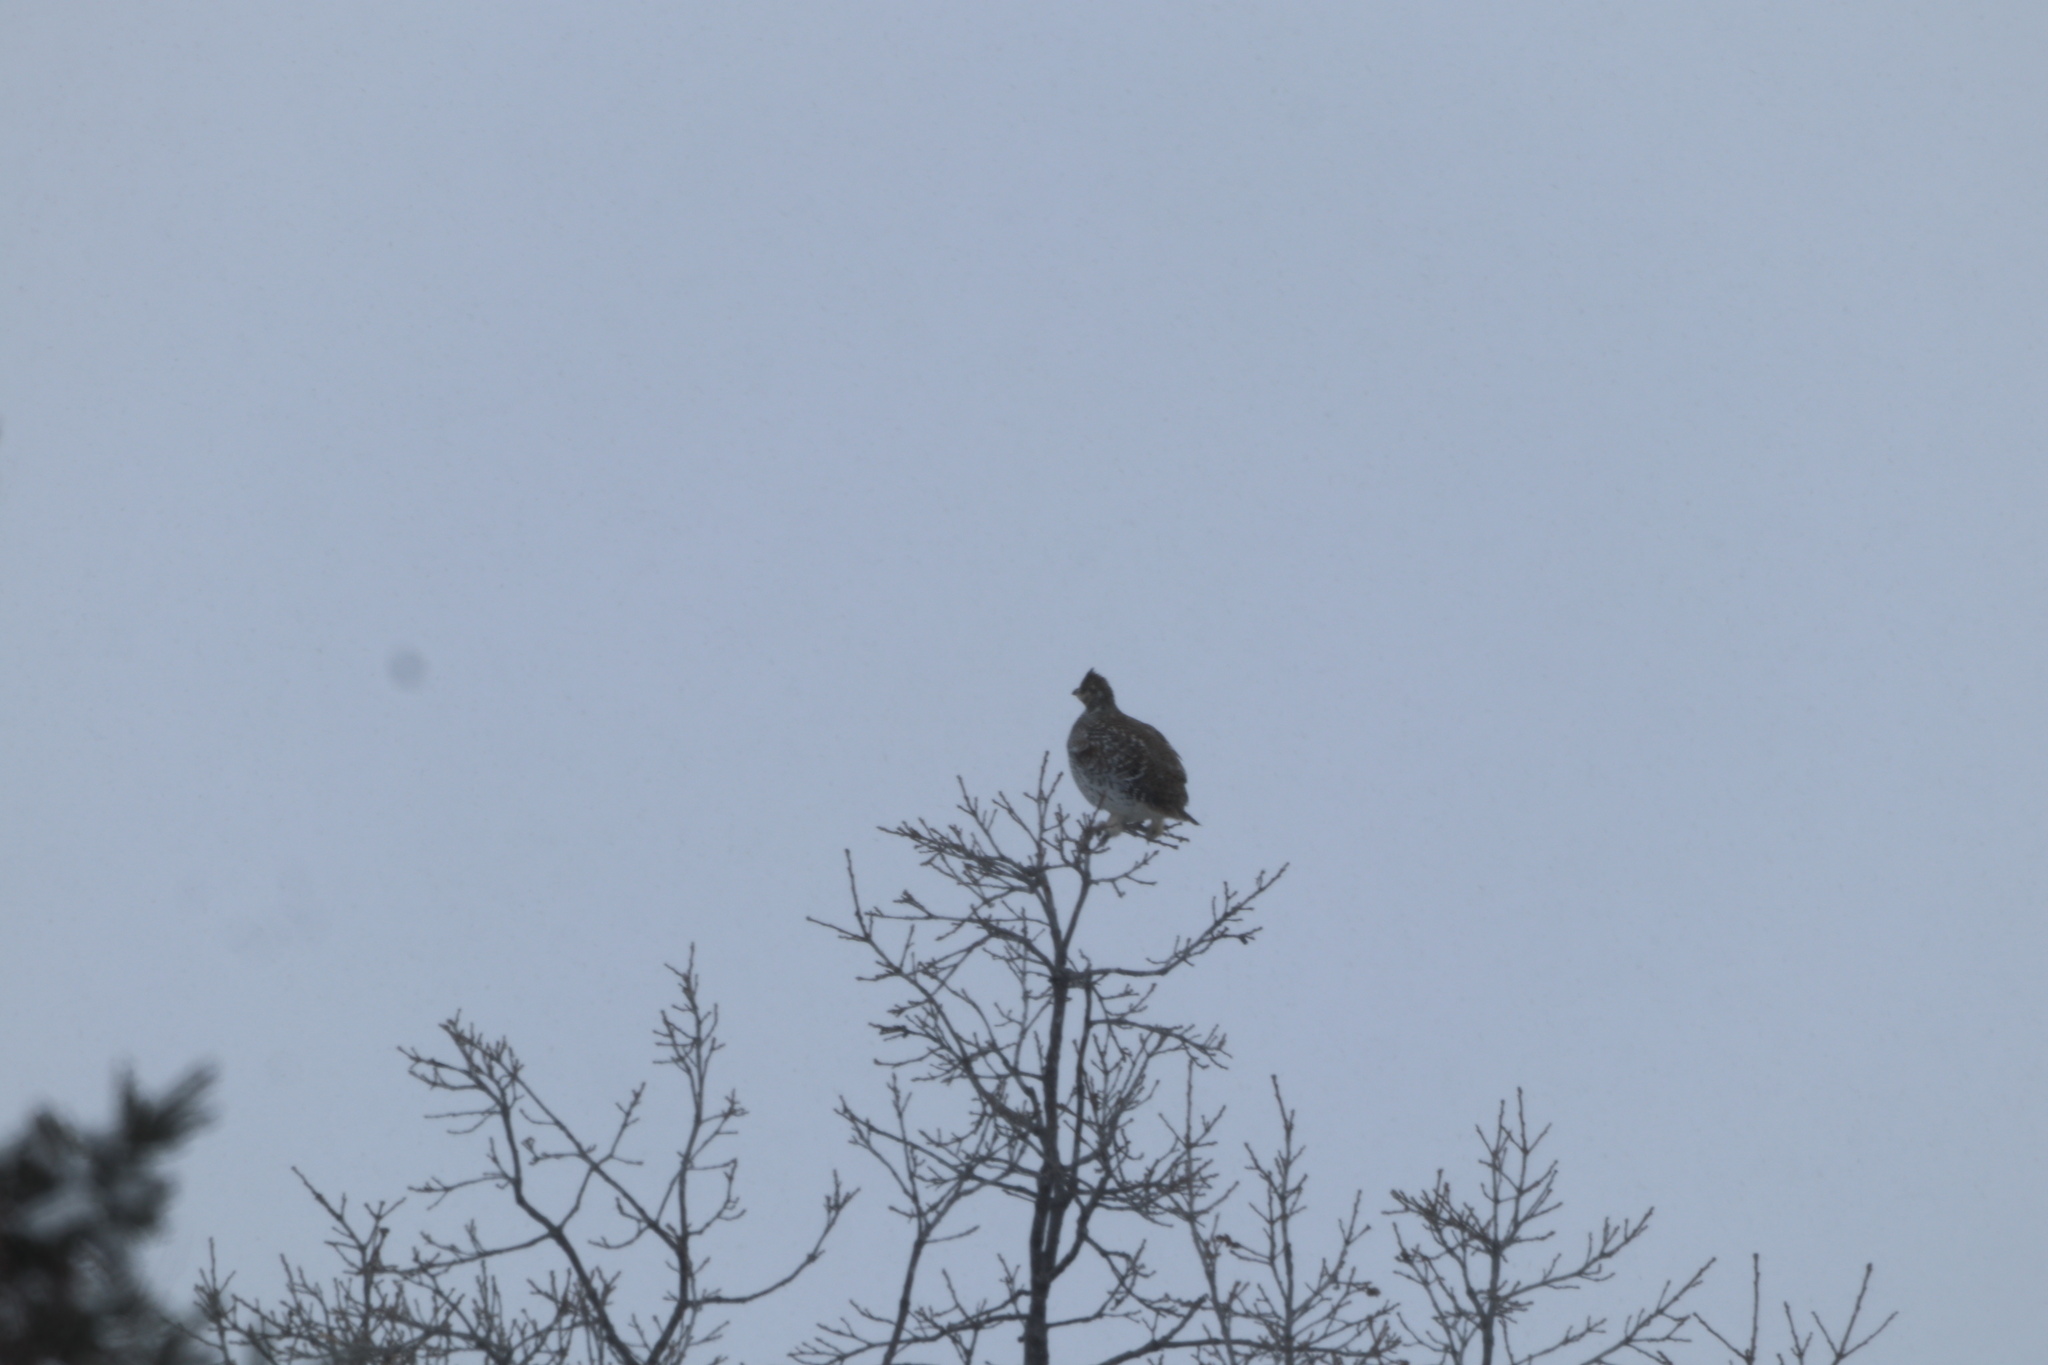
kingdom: Animalia
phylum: Chordata
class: Aves
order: Galliformes
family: Phasianidae
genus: Tympanuchus
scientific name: Tympanuchus phasianellus
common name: Sharp-tailed grouse
